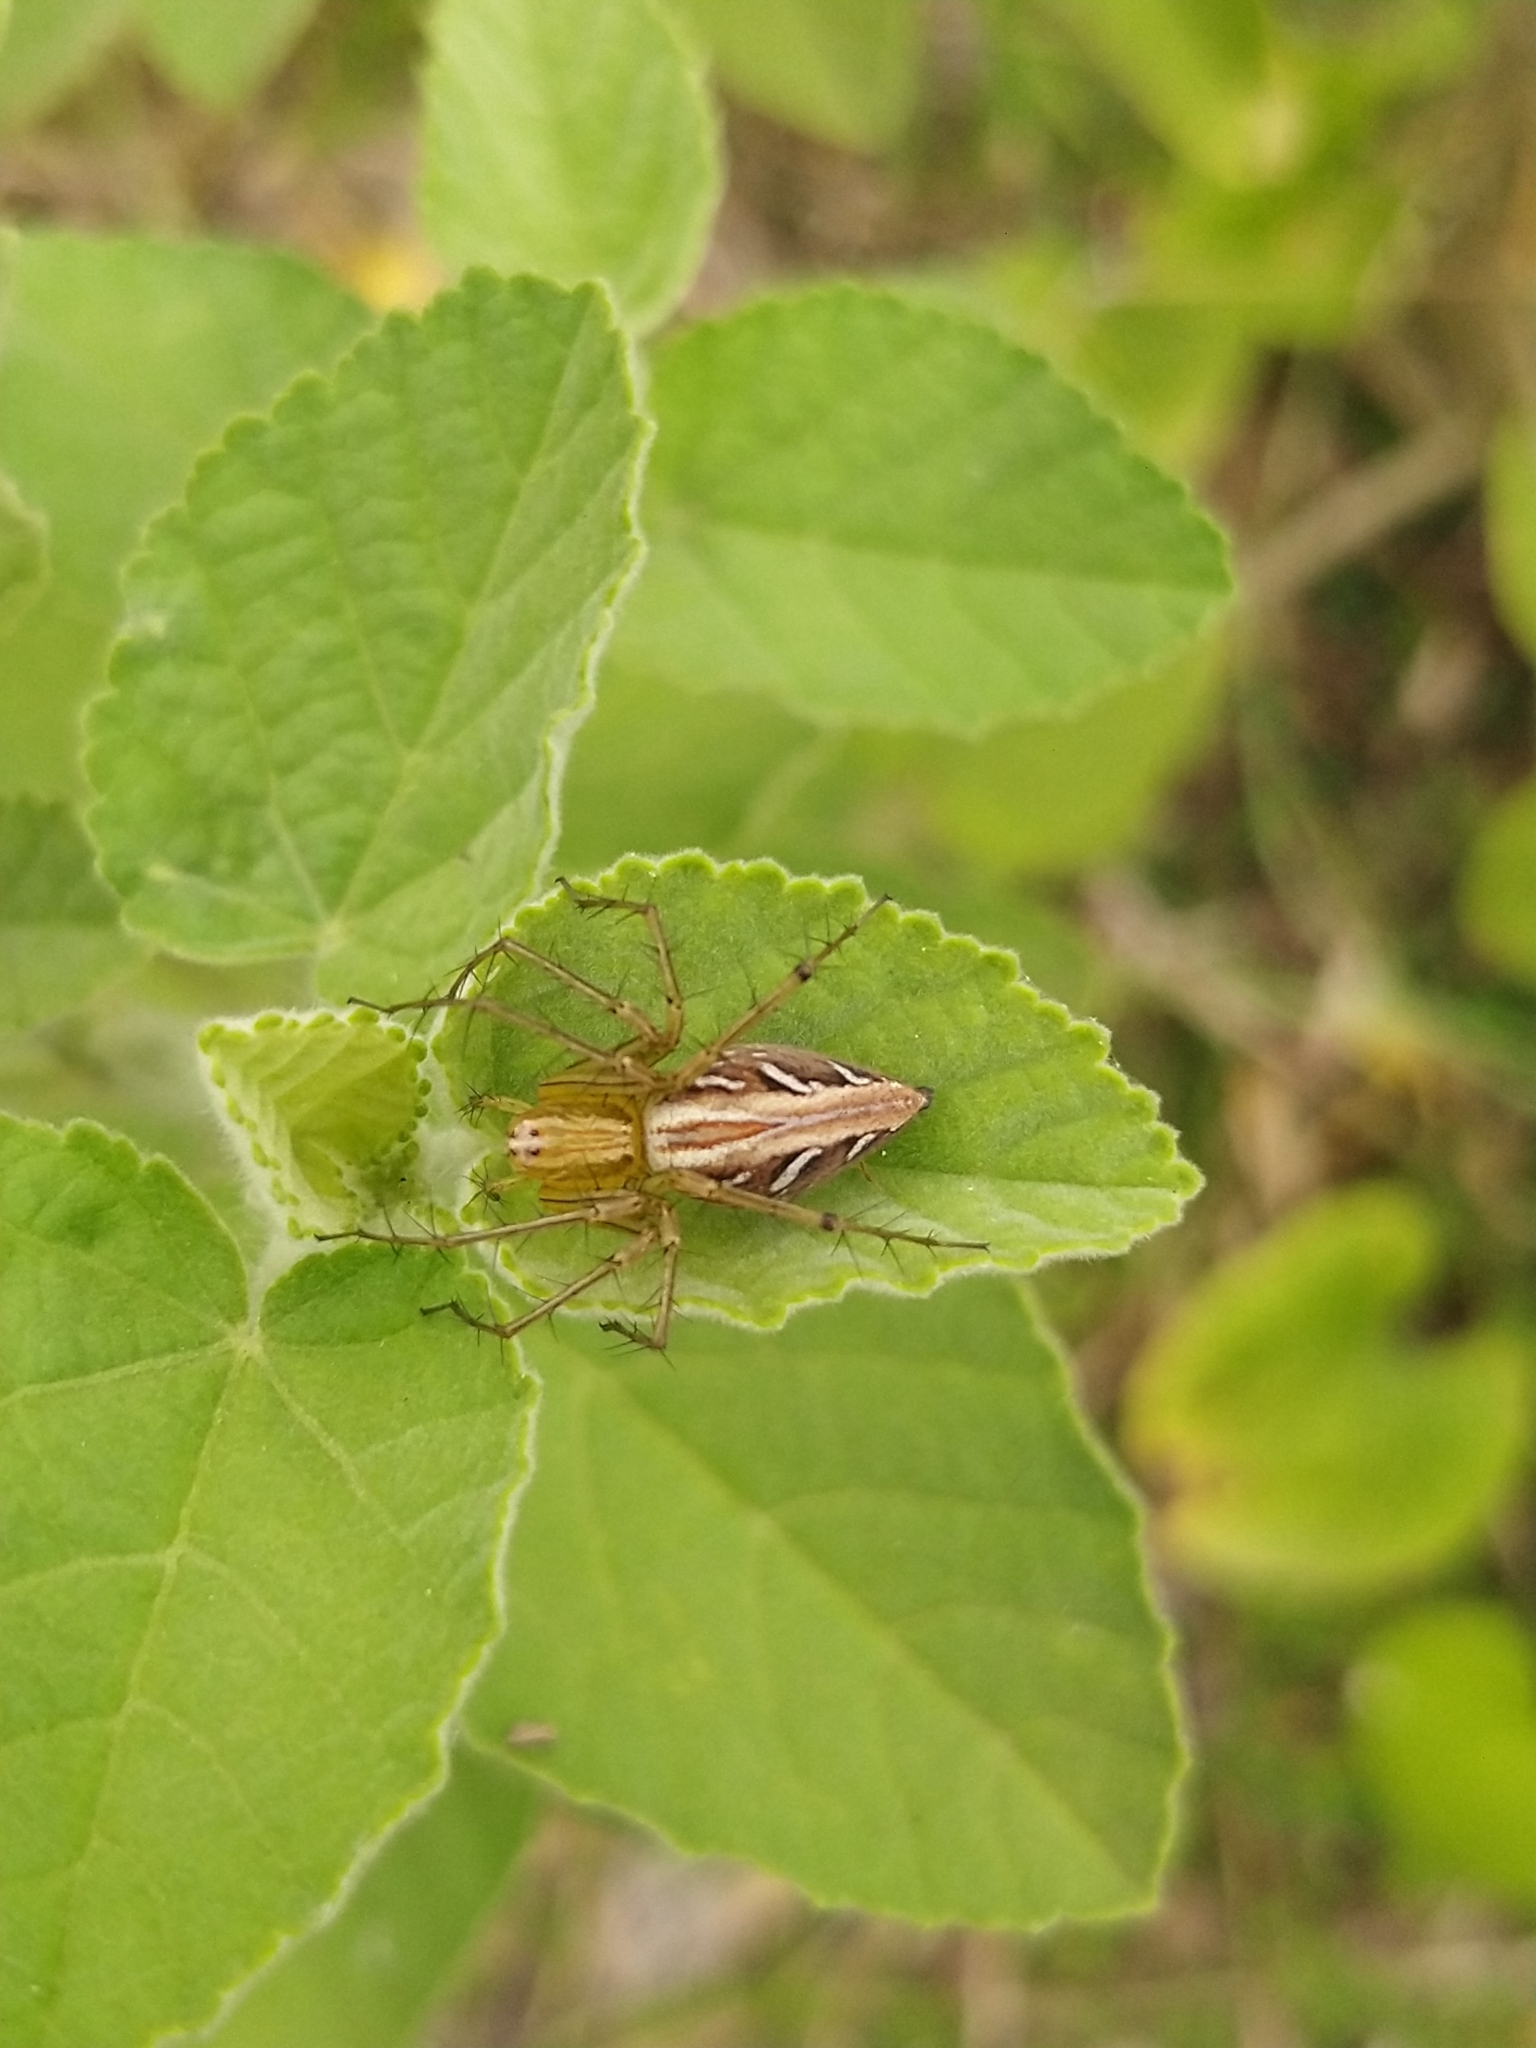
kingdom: Animalia
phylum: Arthropoda
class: Arachnida
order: Araneae
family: Oxyopidae
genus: Oxyopes
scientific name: Oxyopes sertatus
